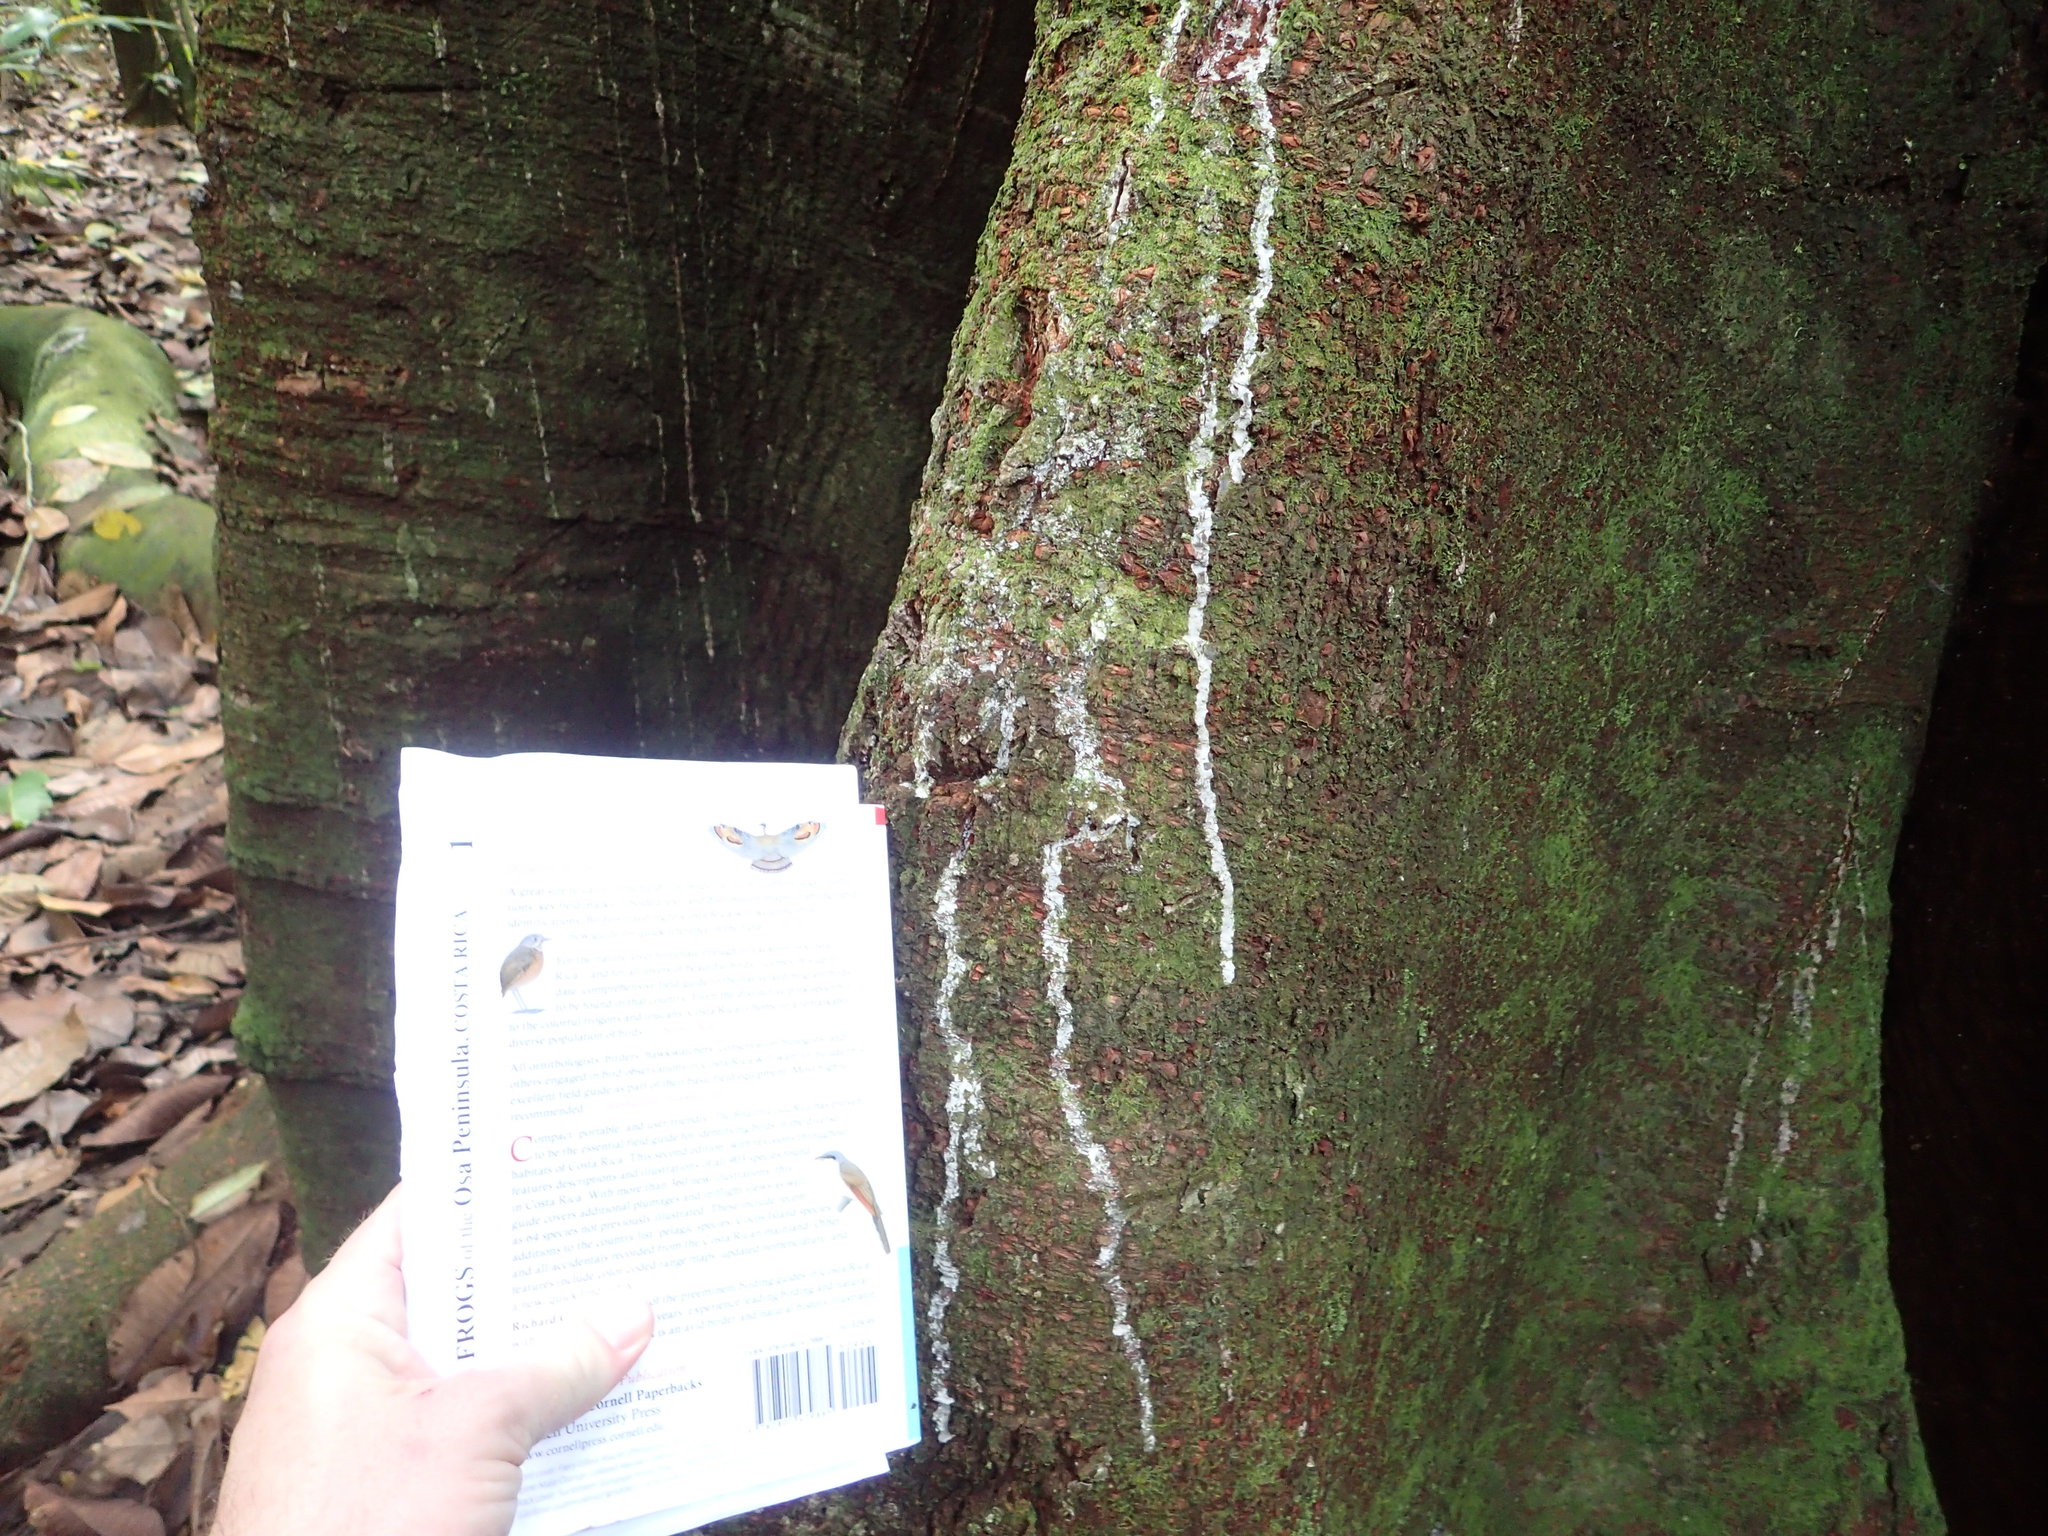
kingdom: Plantae
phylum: Tracheophyta
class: Magnoliopsida
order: Rosales
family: Moraceae
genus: Brosimum
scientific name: Brosimum utile
